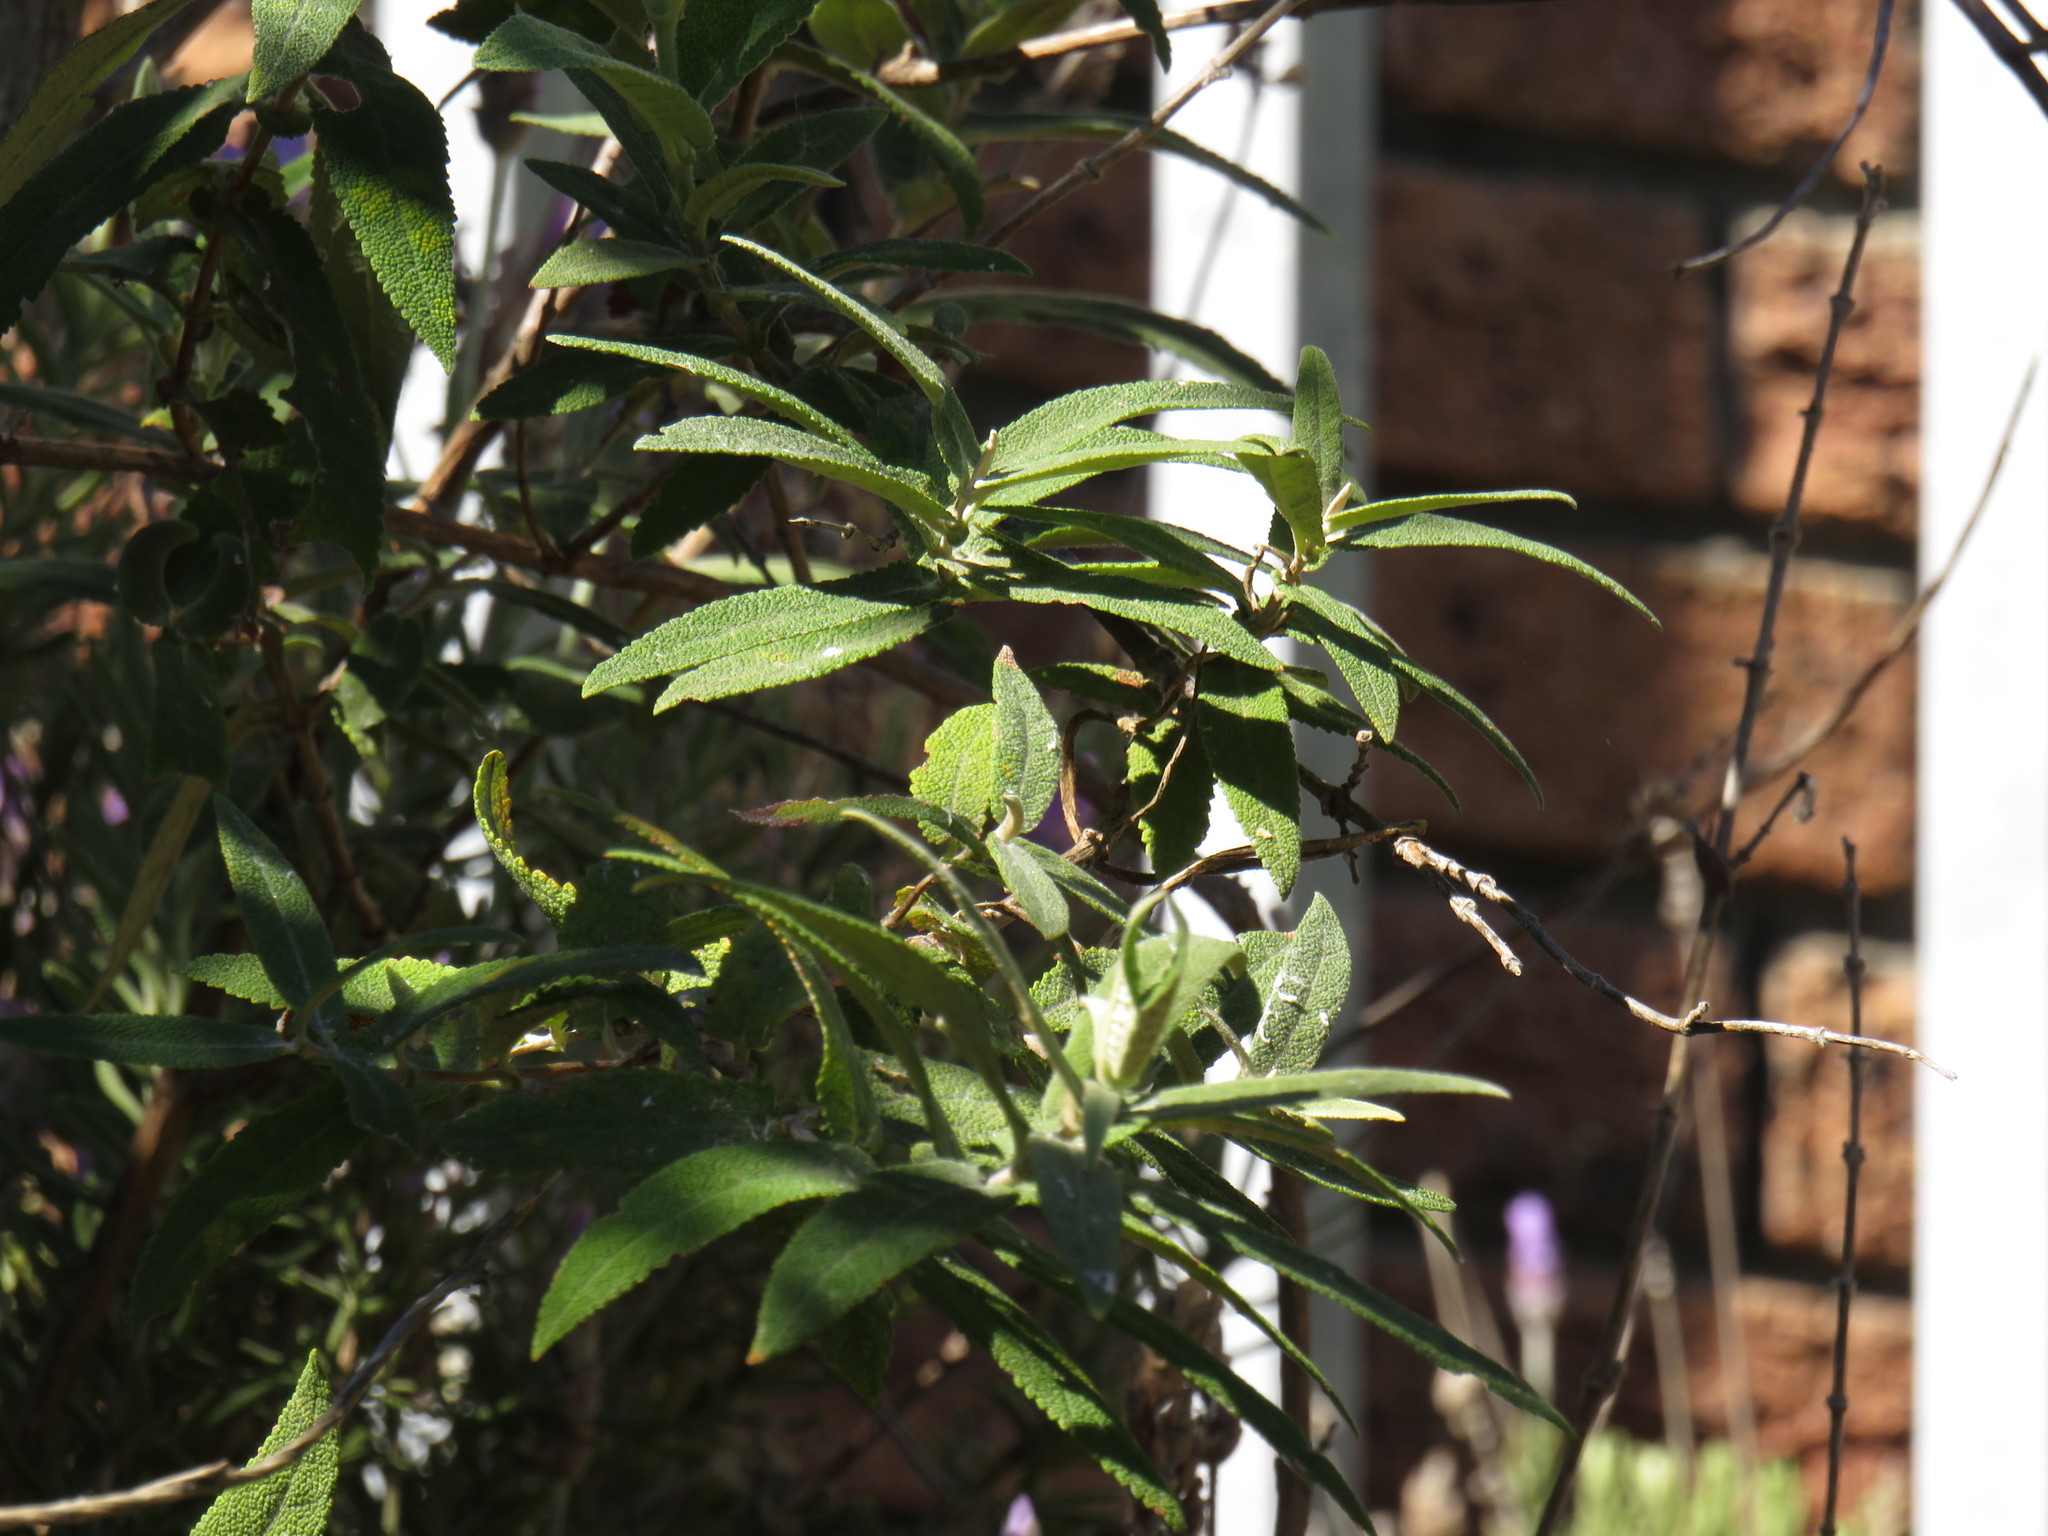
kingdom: Plantae
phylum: Tracheophyta
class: Magnoliopsida
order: Lamiales
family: Scrophulariaceae
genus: Buddleja
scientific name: Buddleja salviifolia
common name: Sagewood
